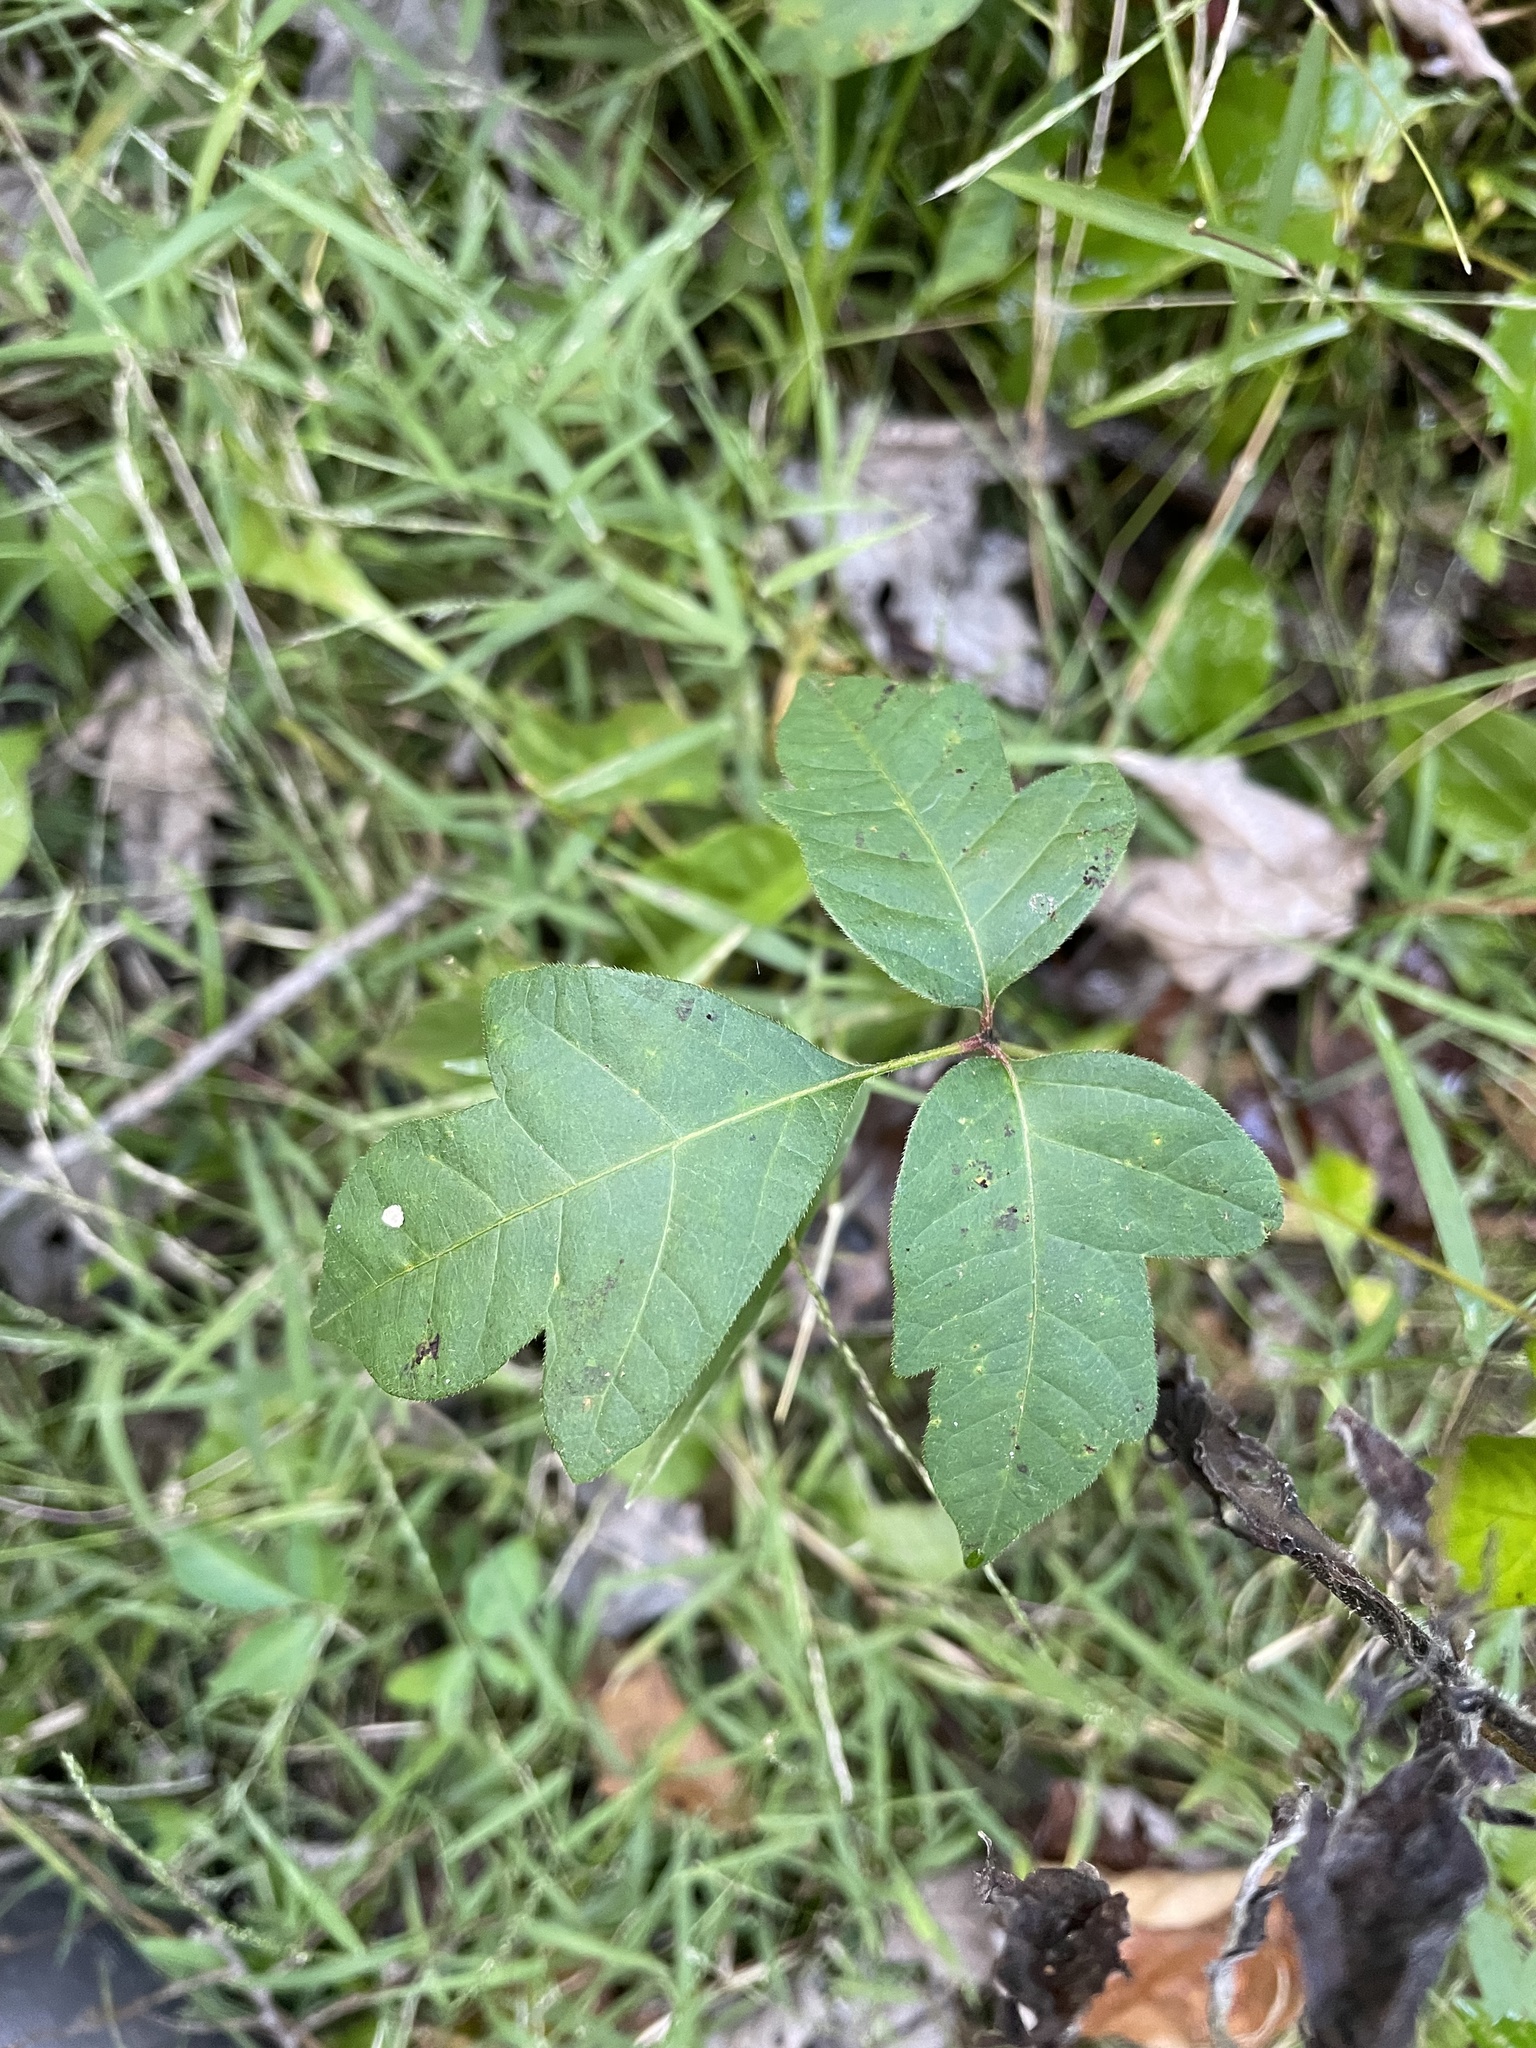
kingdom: Plantae
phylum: Tracheophyta
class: Magnoliopsida
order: Sapindales
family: Anacardiaceae
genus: Toxicodendron
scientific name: Toxicodendron radicans
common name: Poison ivy
